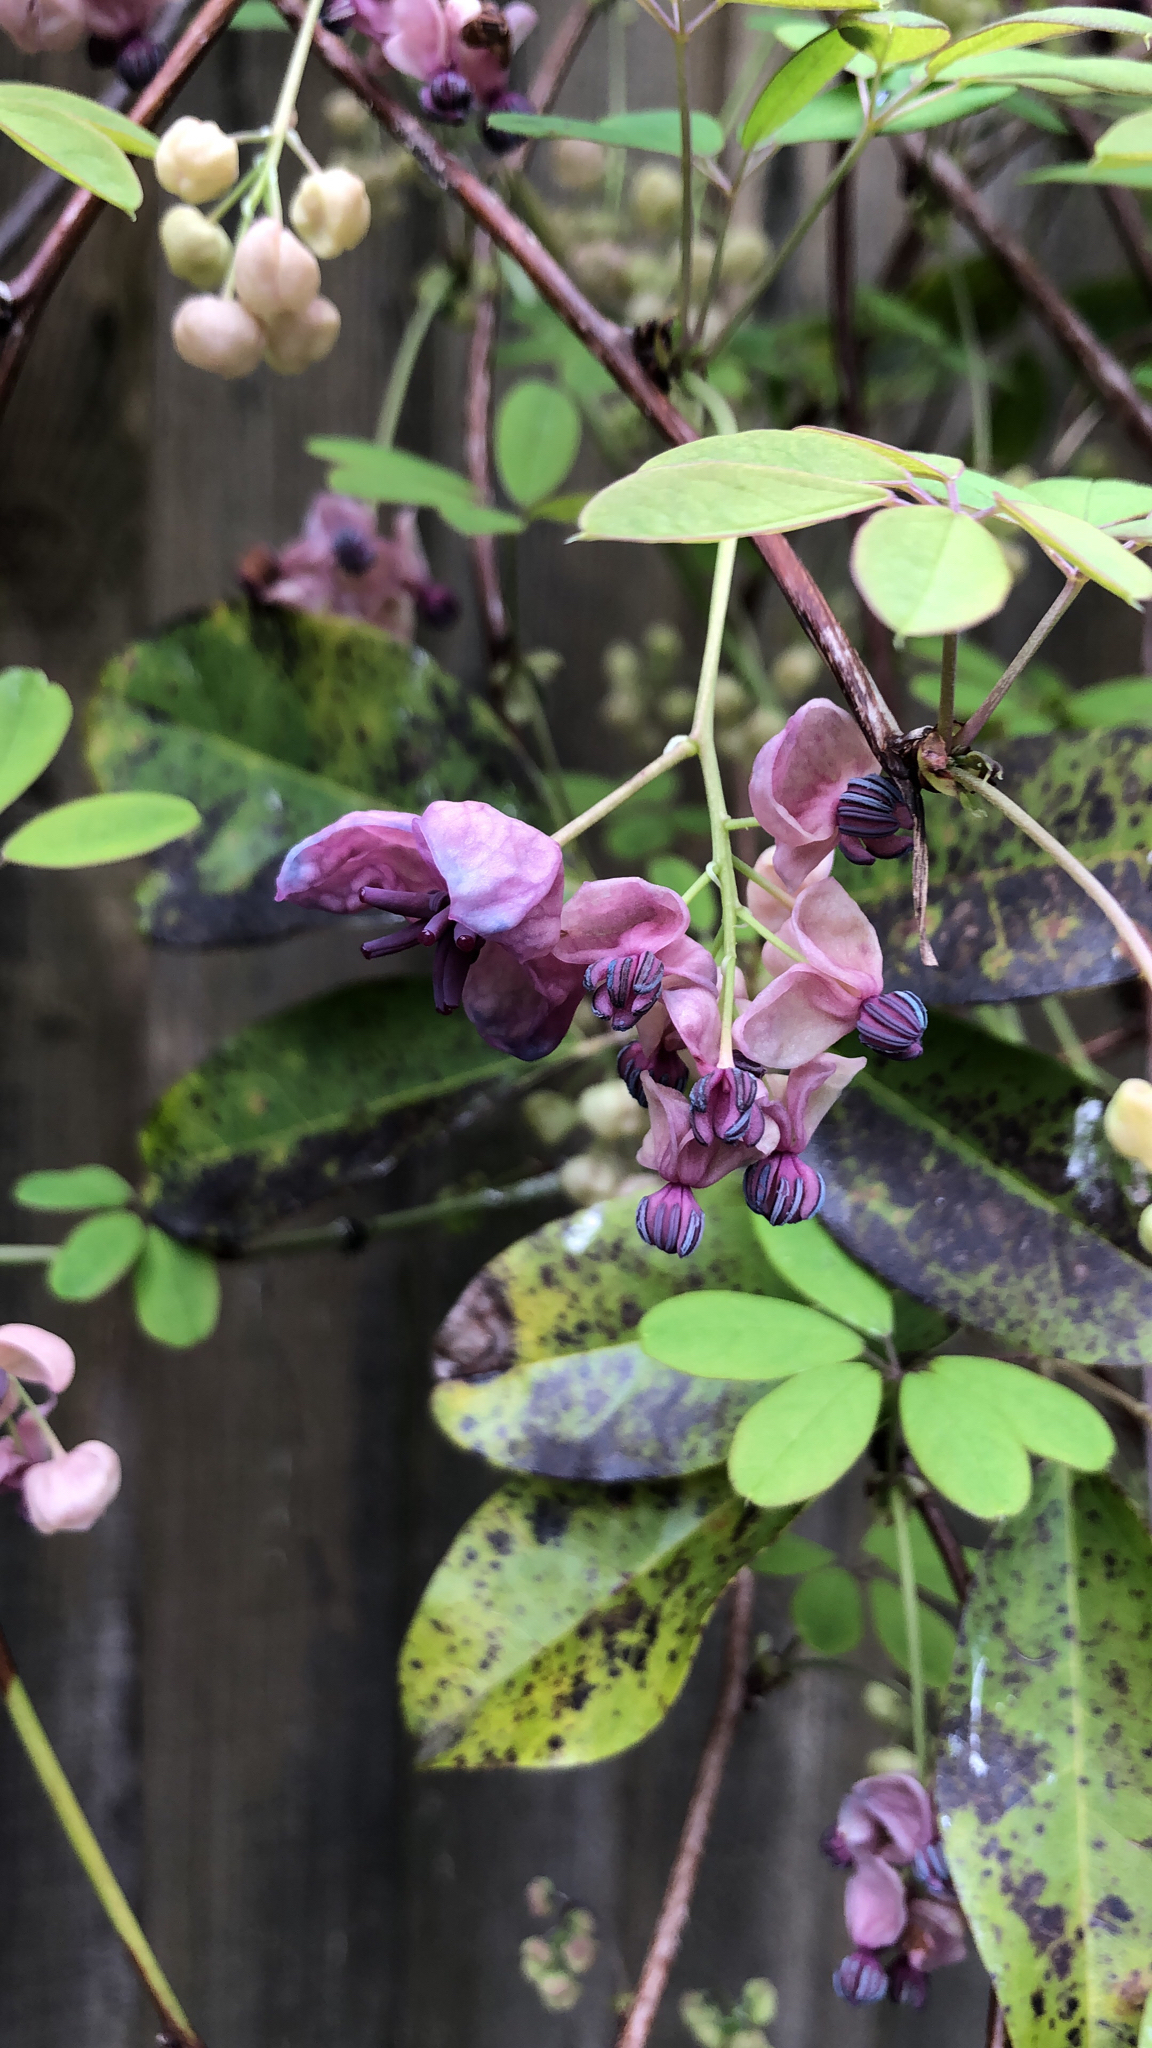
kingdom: Plantae
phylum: Tracheophyta
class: Magnoliopsida
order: Ranunculales
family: Lardizabalaceae
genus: Akebia
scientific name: Akebia quinata
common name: Five-leaf akebia
